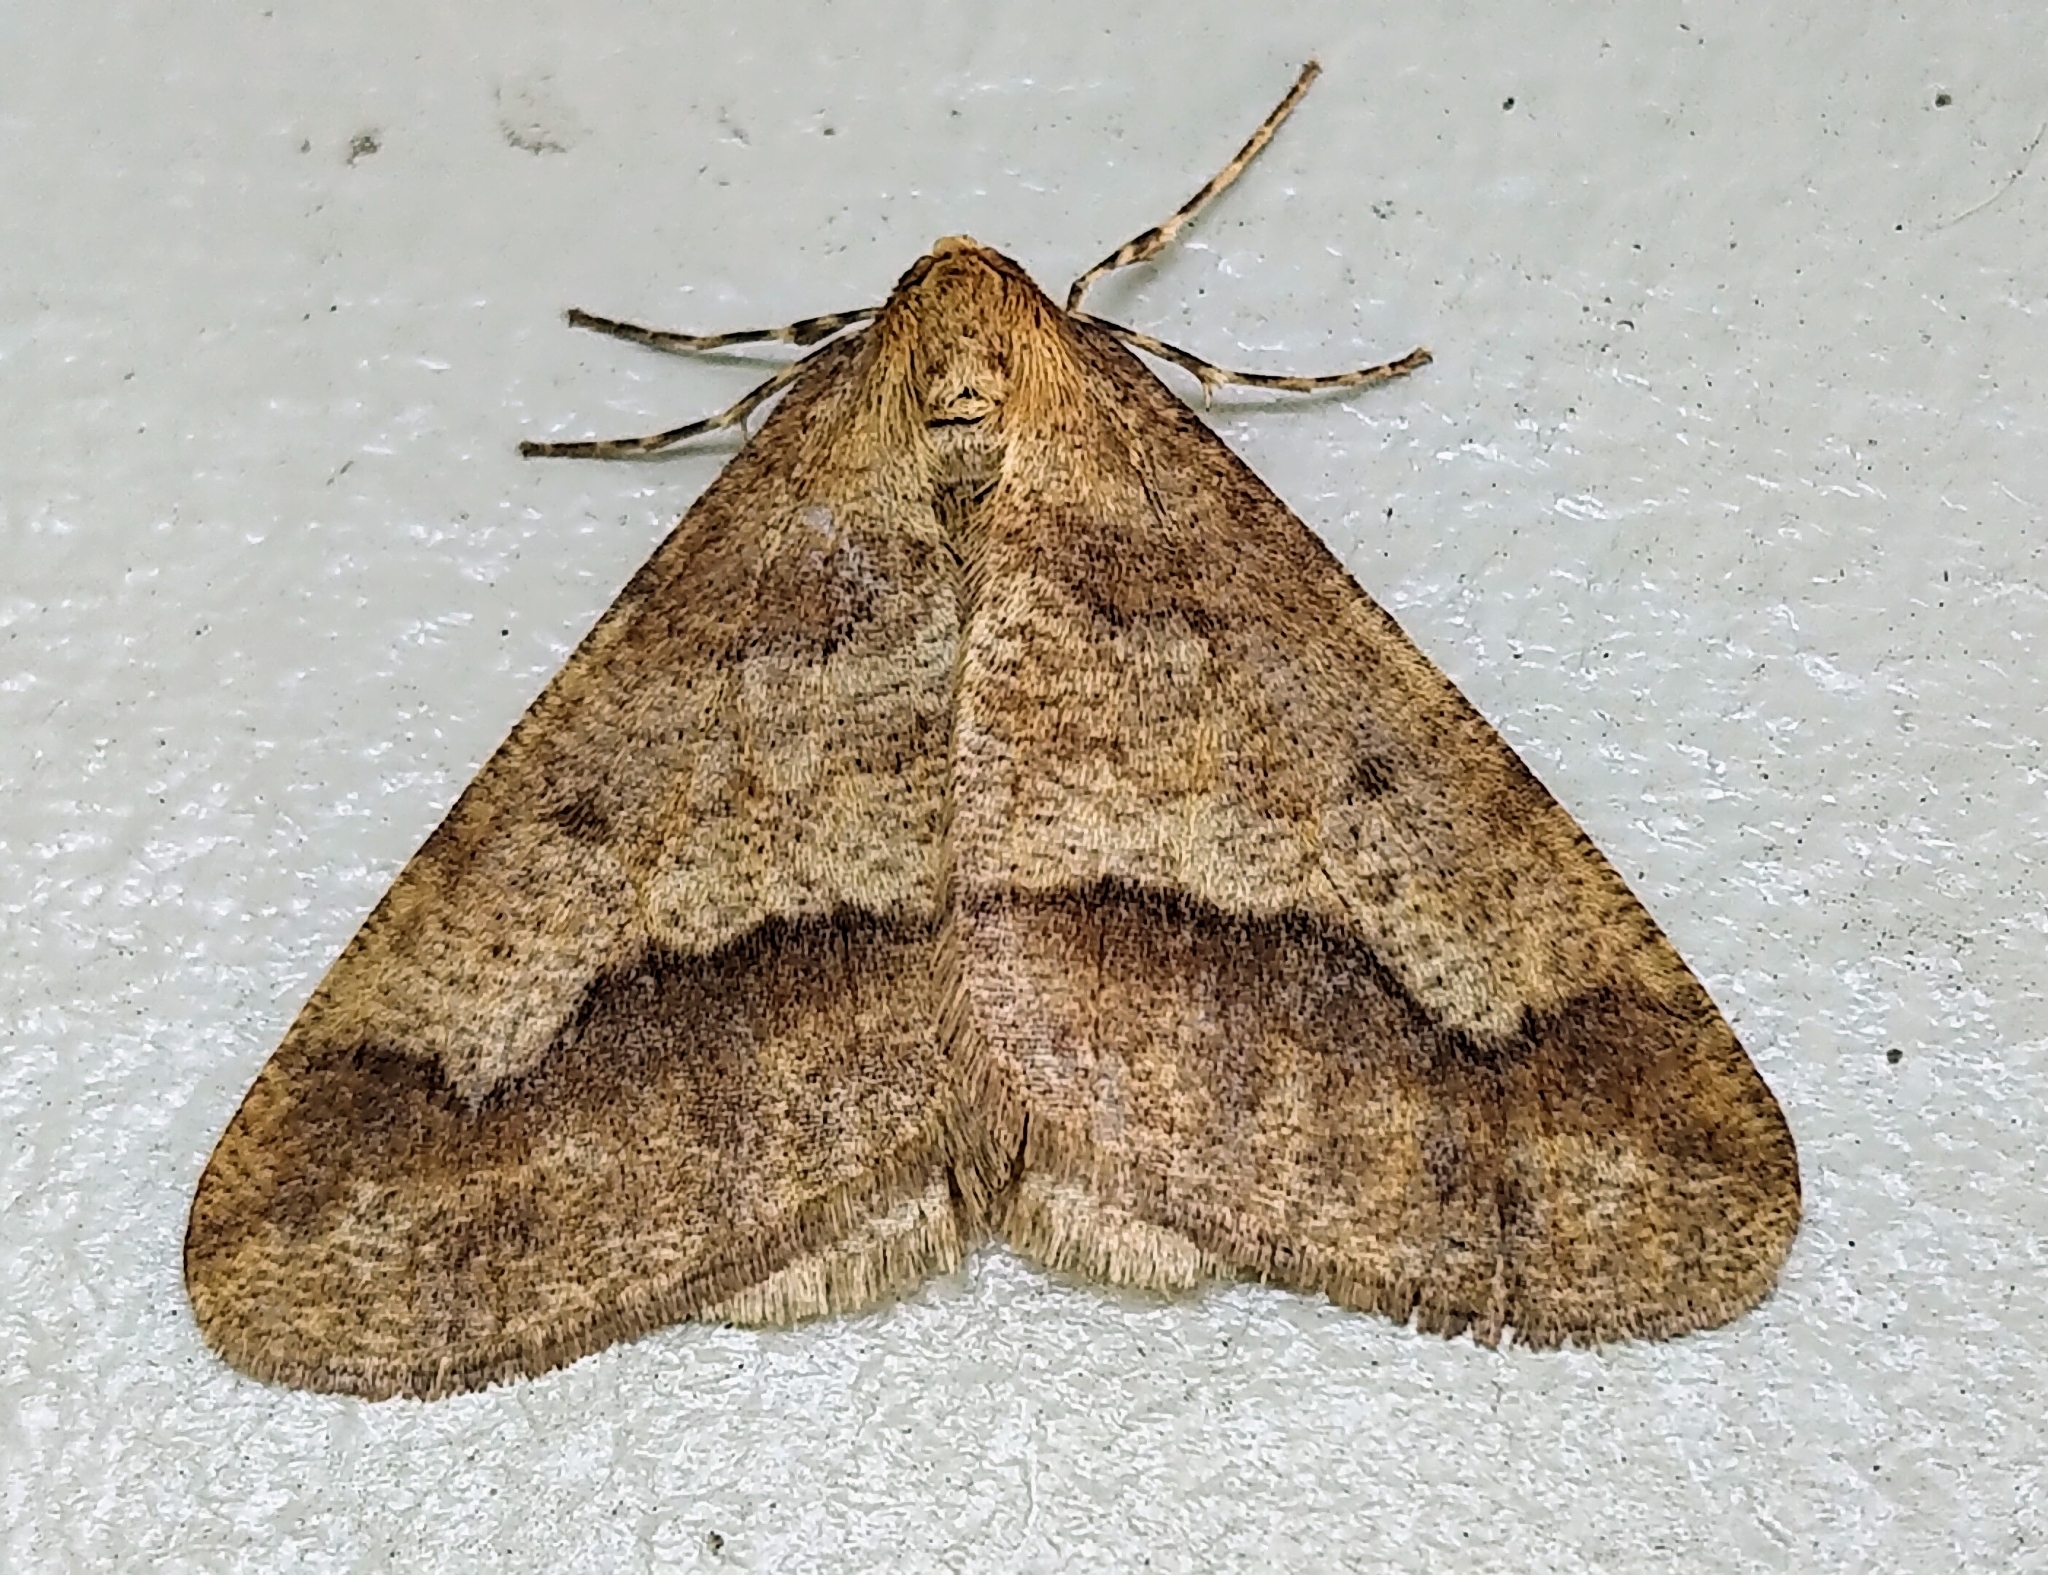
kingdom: Animalia
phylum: Arthropoda
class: Insecta
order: Lepidoptera
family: Geometridae
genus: Erannis
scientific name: Erannis tiliaria
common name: Linden looper
